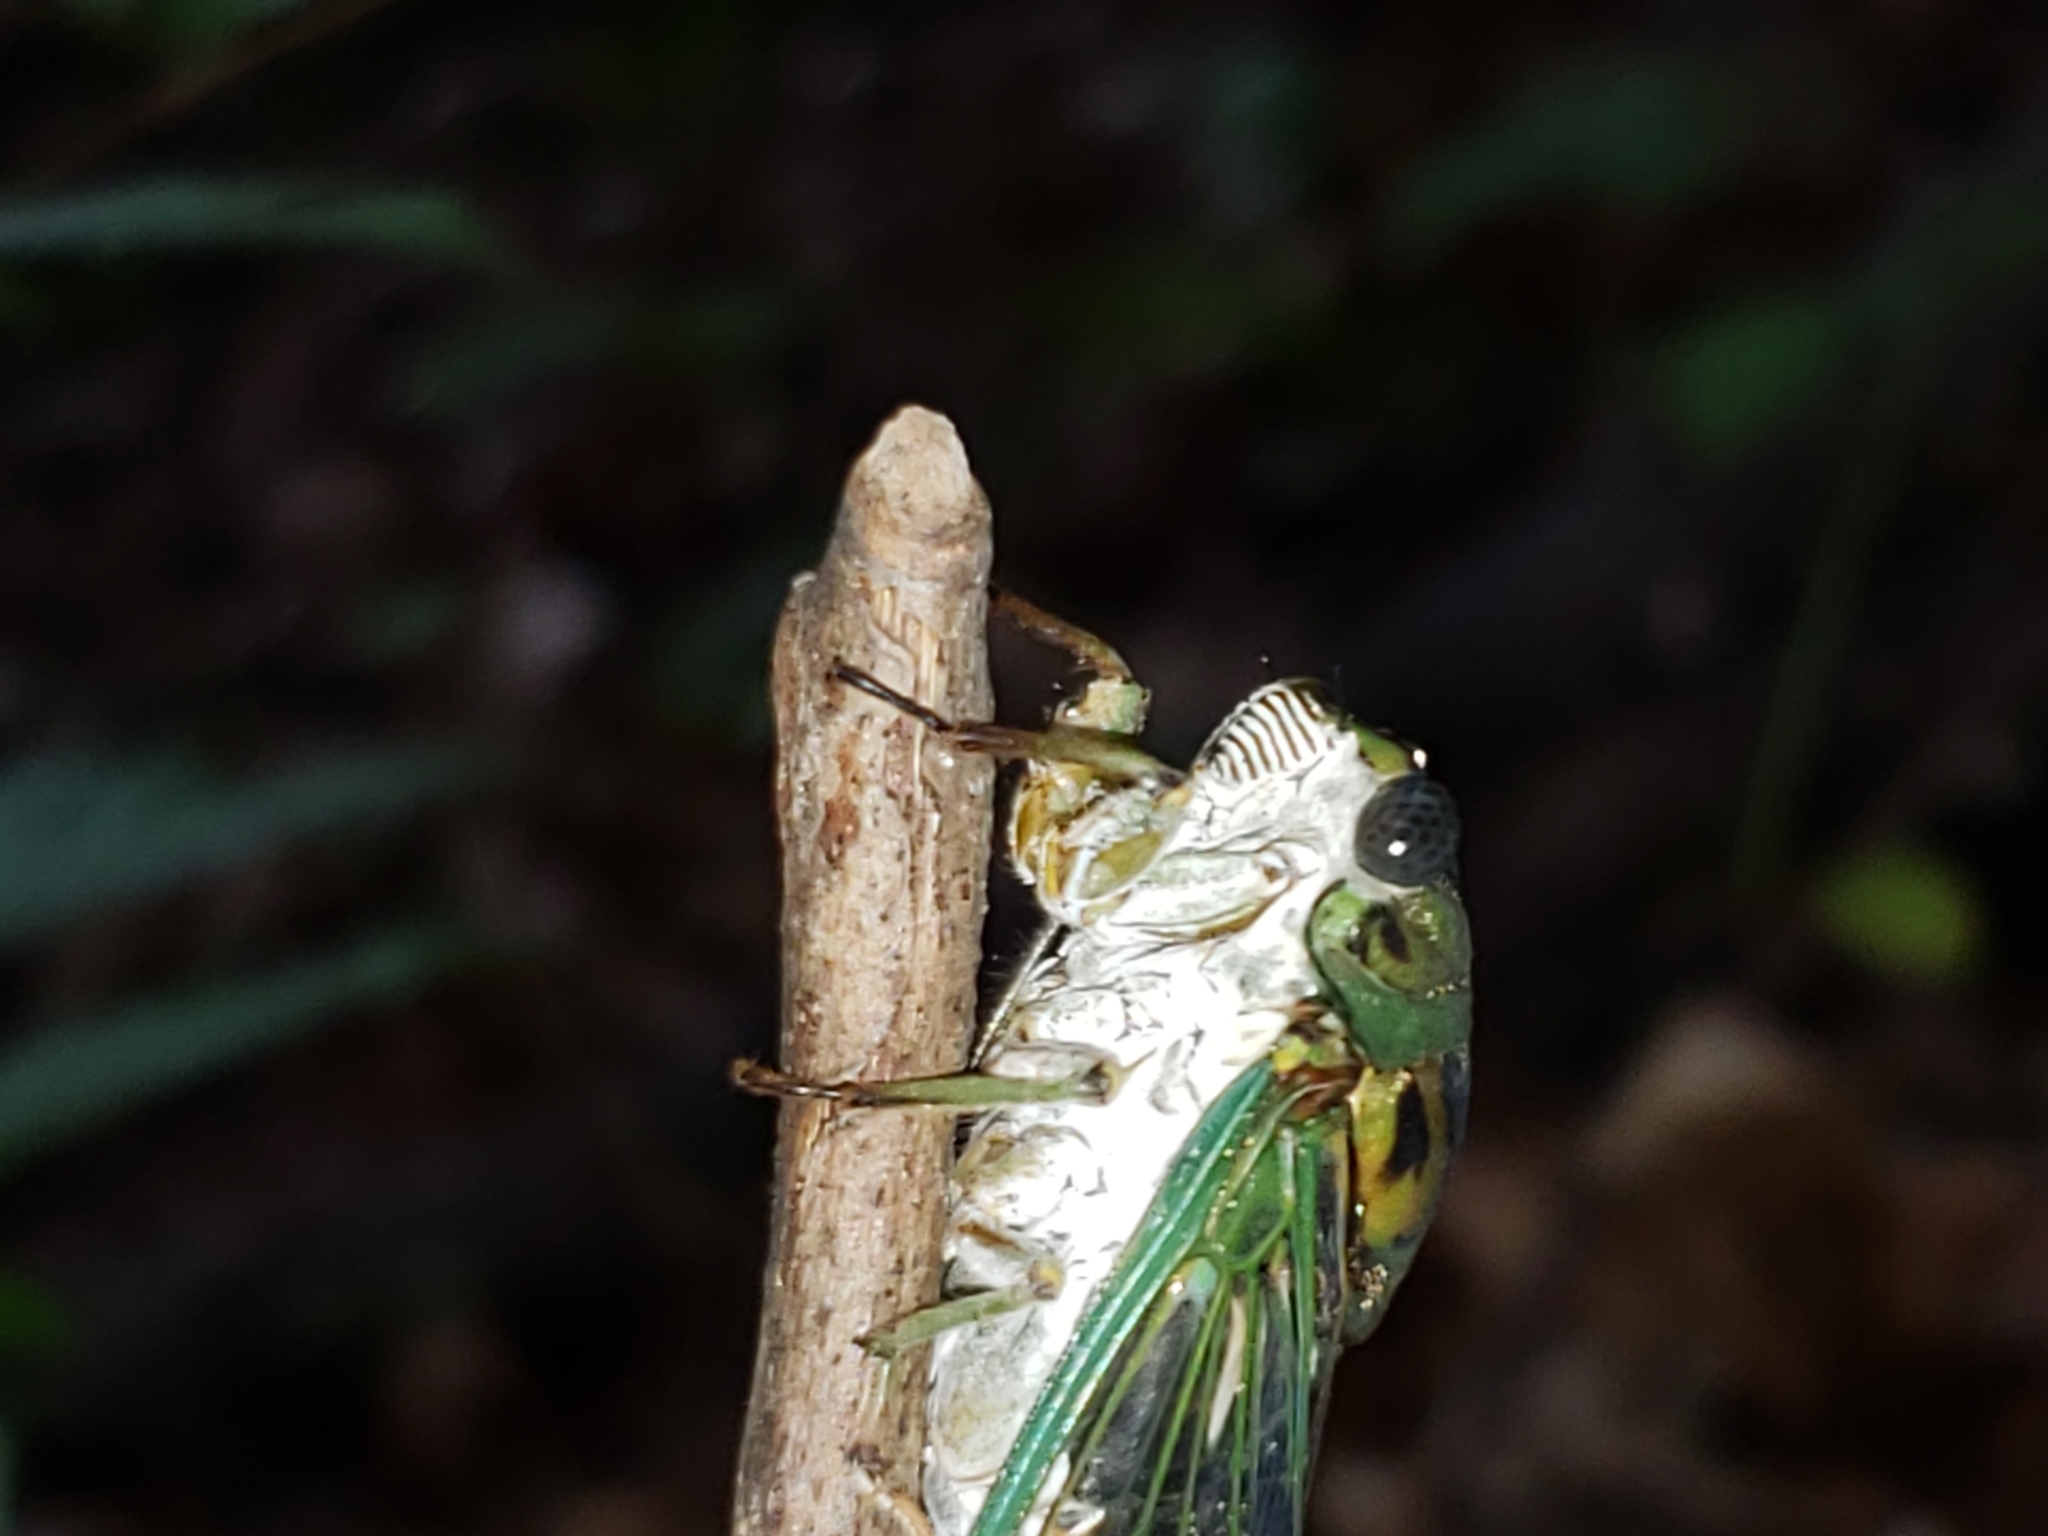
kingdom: Animalia
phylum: Arthropoda
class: Insecta
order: Hemiptera
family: Cicadidae
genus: Neotibicen
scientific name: Neotibicen winnemanna
